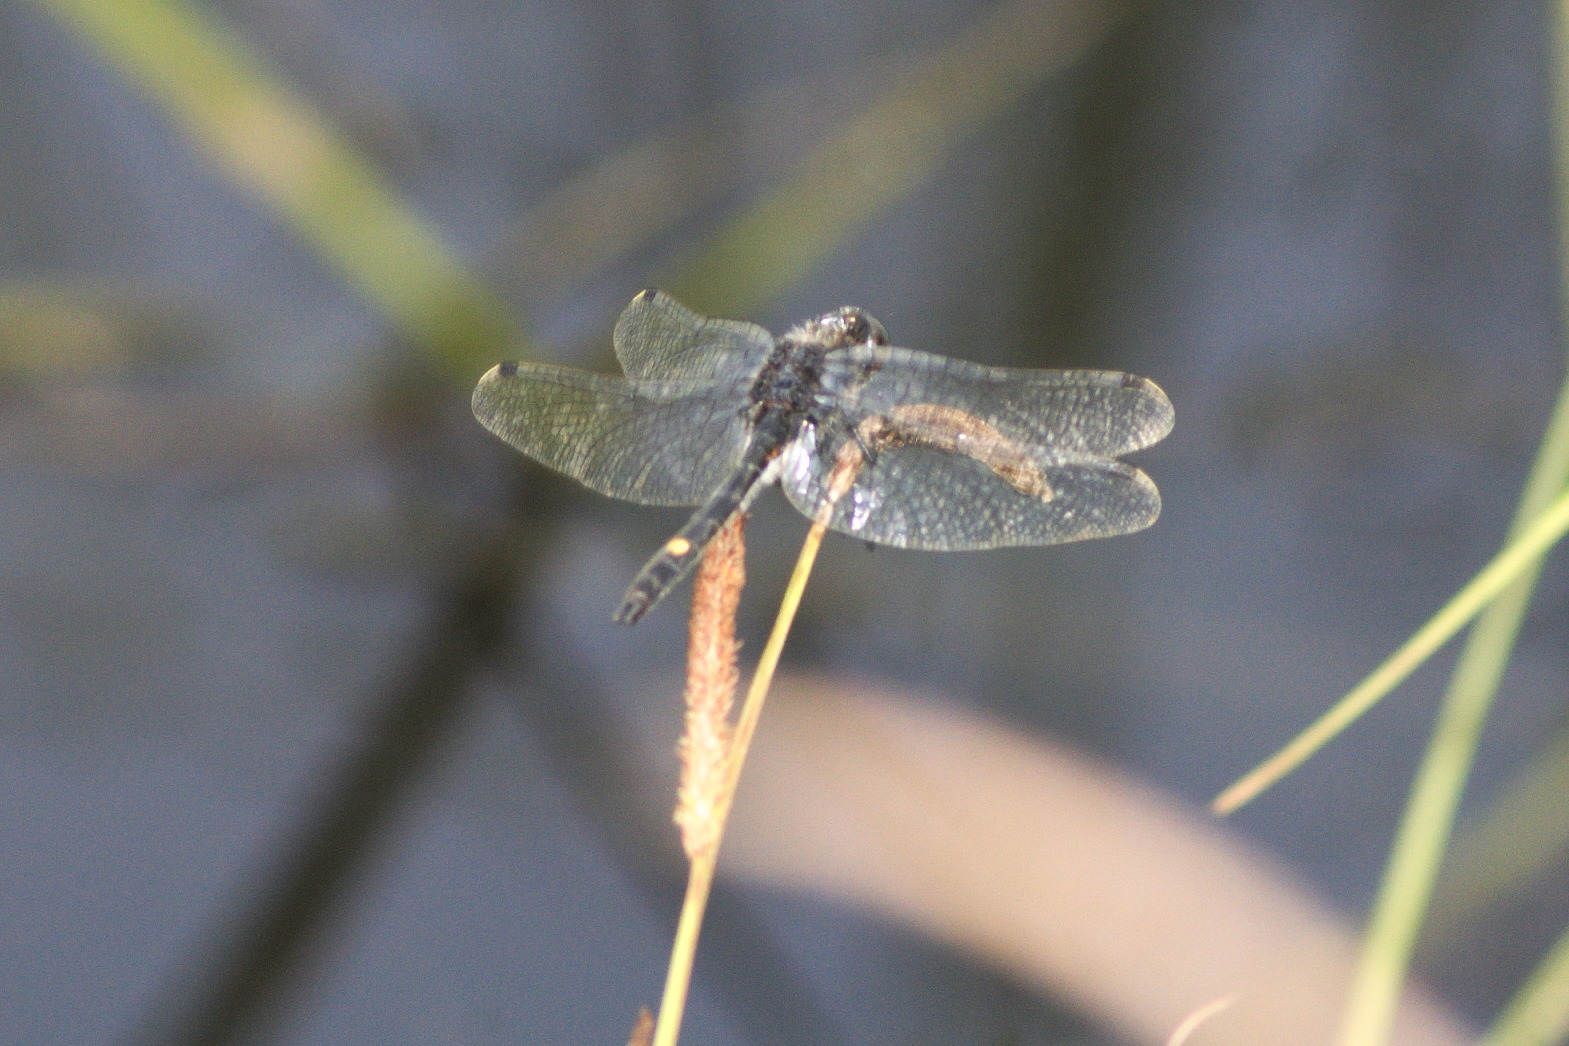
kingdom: Animalia
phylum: Arthropoda
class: Insecta
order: Odonata
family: Libellulidae
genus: Leucorrhinia
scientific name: Leucorrhinia intacta
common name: Dot-tailed whiteface
